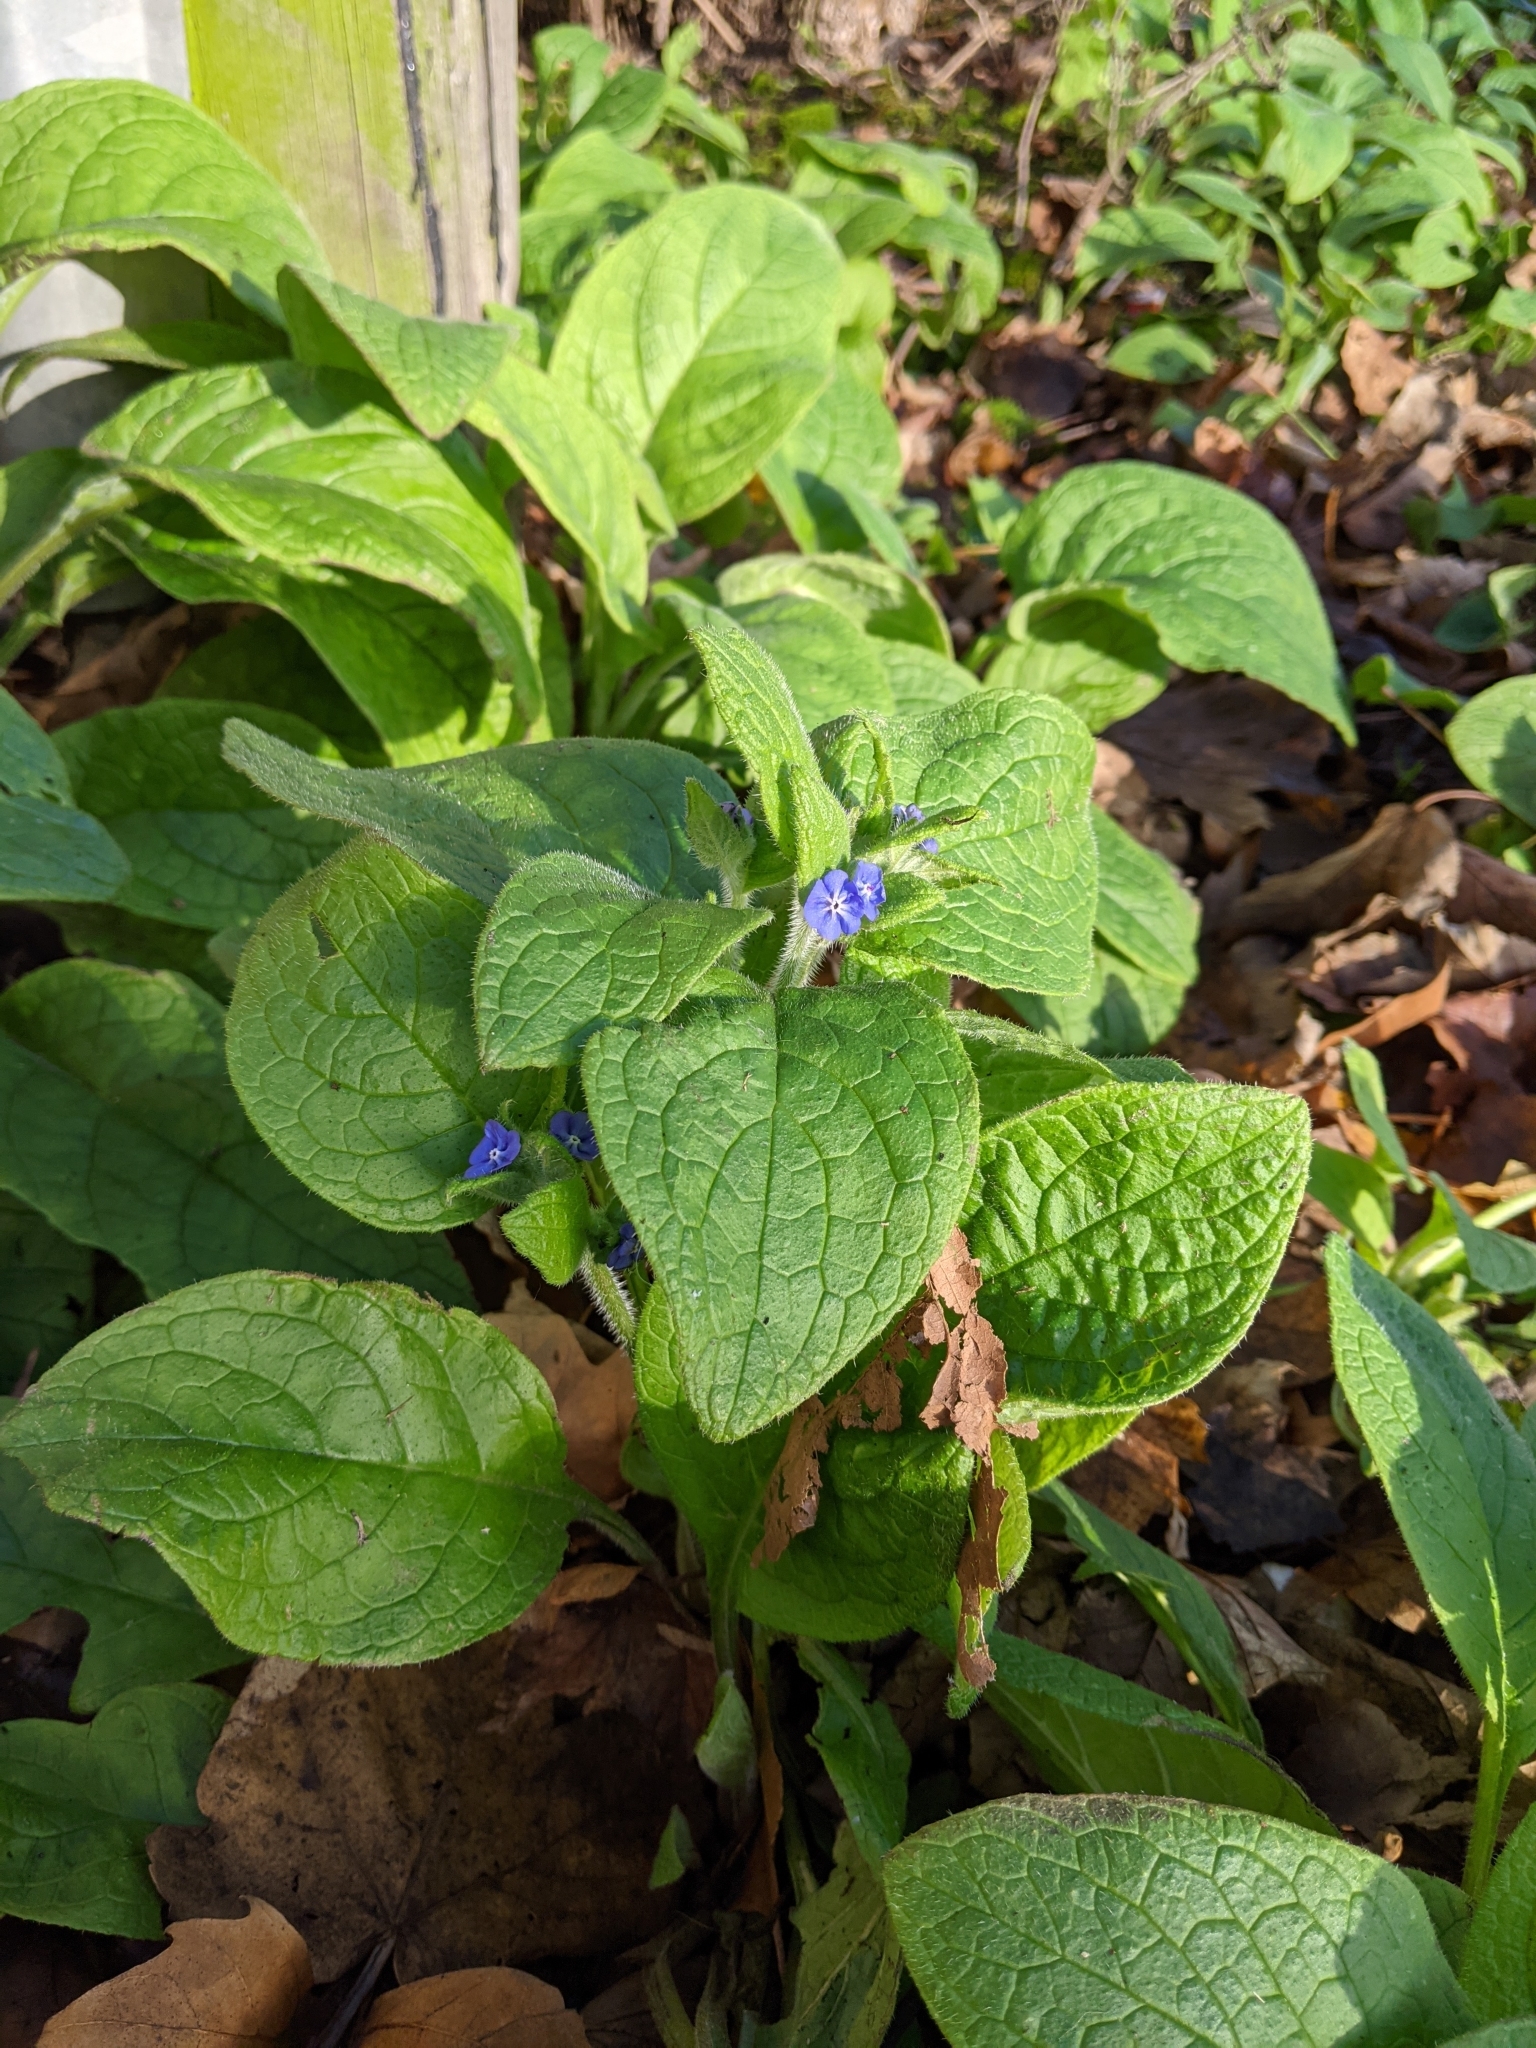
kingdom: Plantae
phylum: Tracheophyta
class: Magnoliopsida
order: Boraginales
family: Boraginaceae
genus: Pentaglottis
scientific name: Pentaglottis sempervirens
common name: Green alkanet
